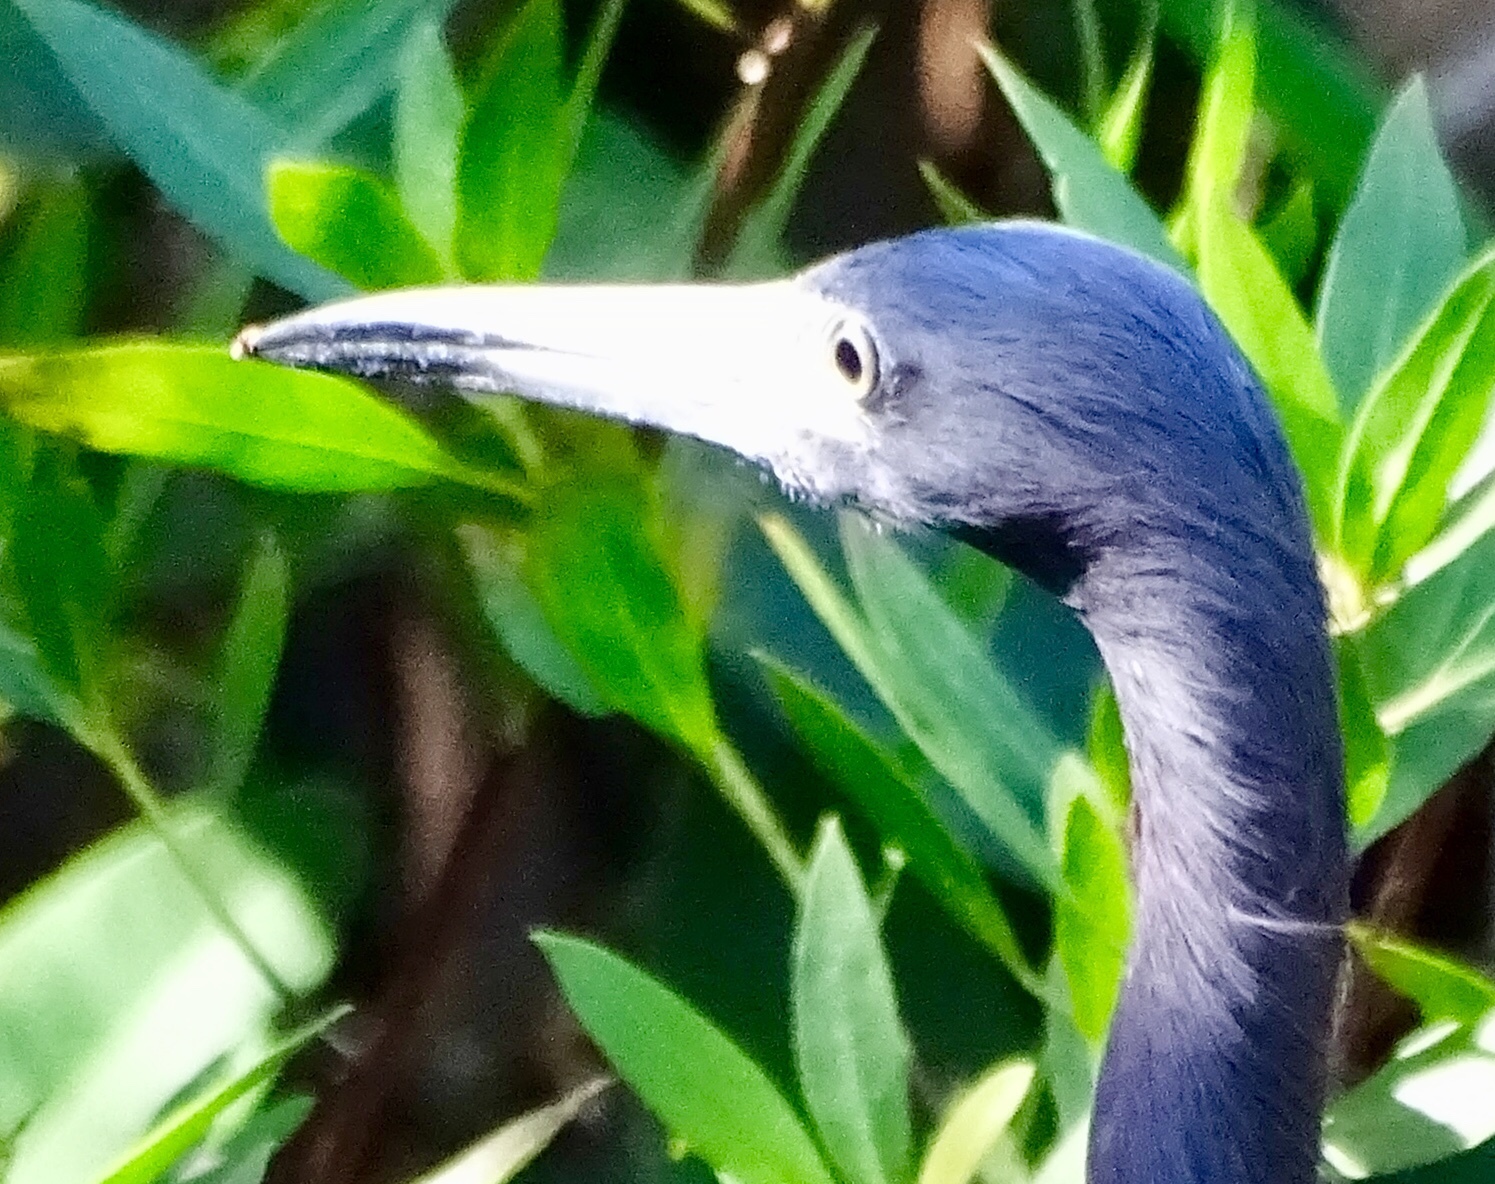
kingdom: Animalia
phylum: Chordata
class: Aves
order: Pelecaniformes
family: Ardeidae
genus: Egretta
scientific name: Egretta caerulea
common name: Little blue heron
